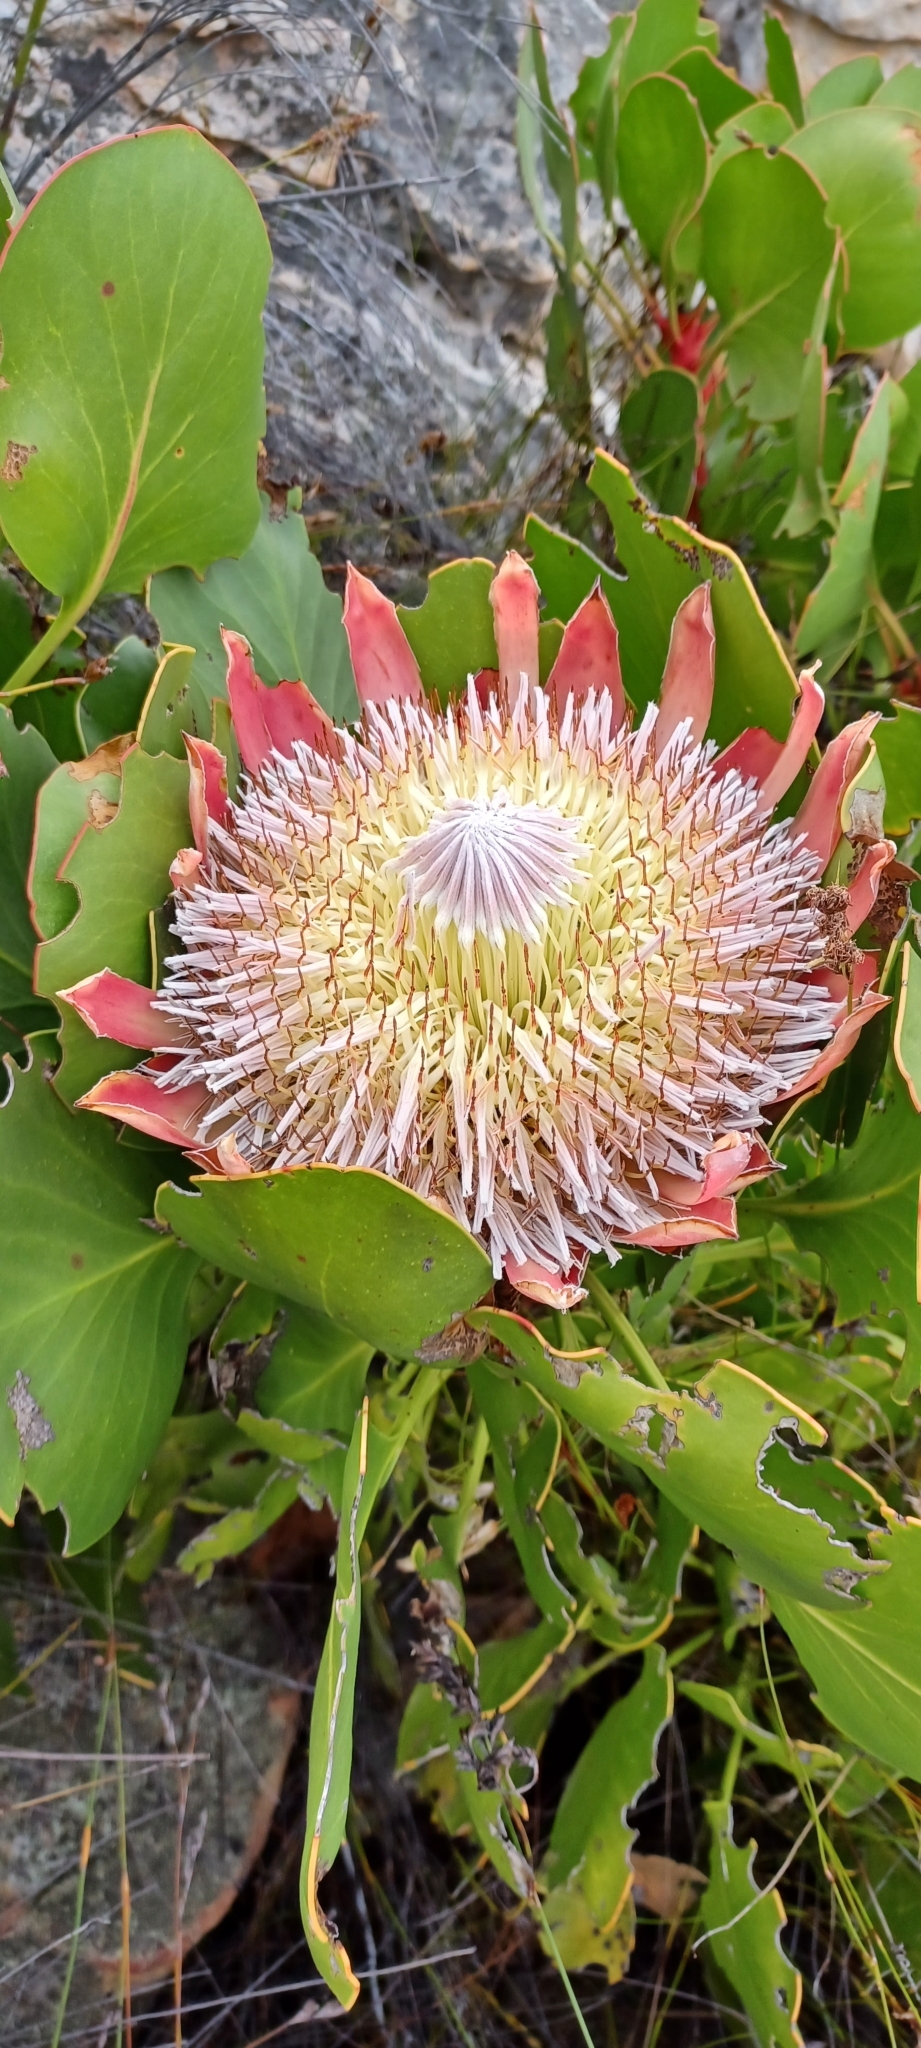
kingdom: Plantae
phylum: Tracheophyta
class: Magnoliopsida
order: Proteales
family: Proteaceae
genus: Protea
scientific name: Protea cynaroides
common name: King protea
